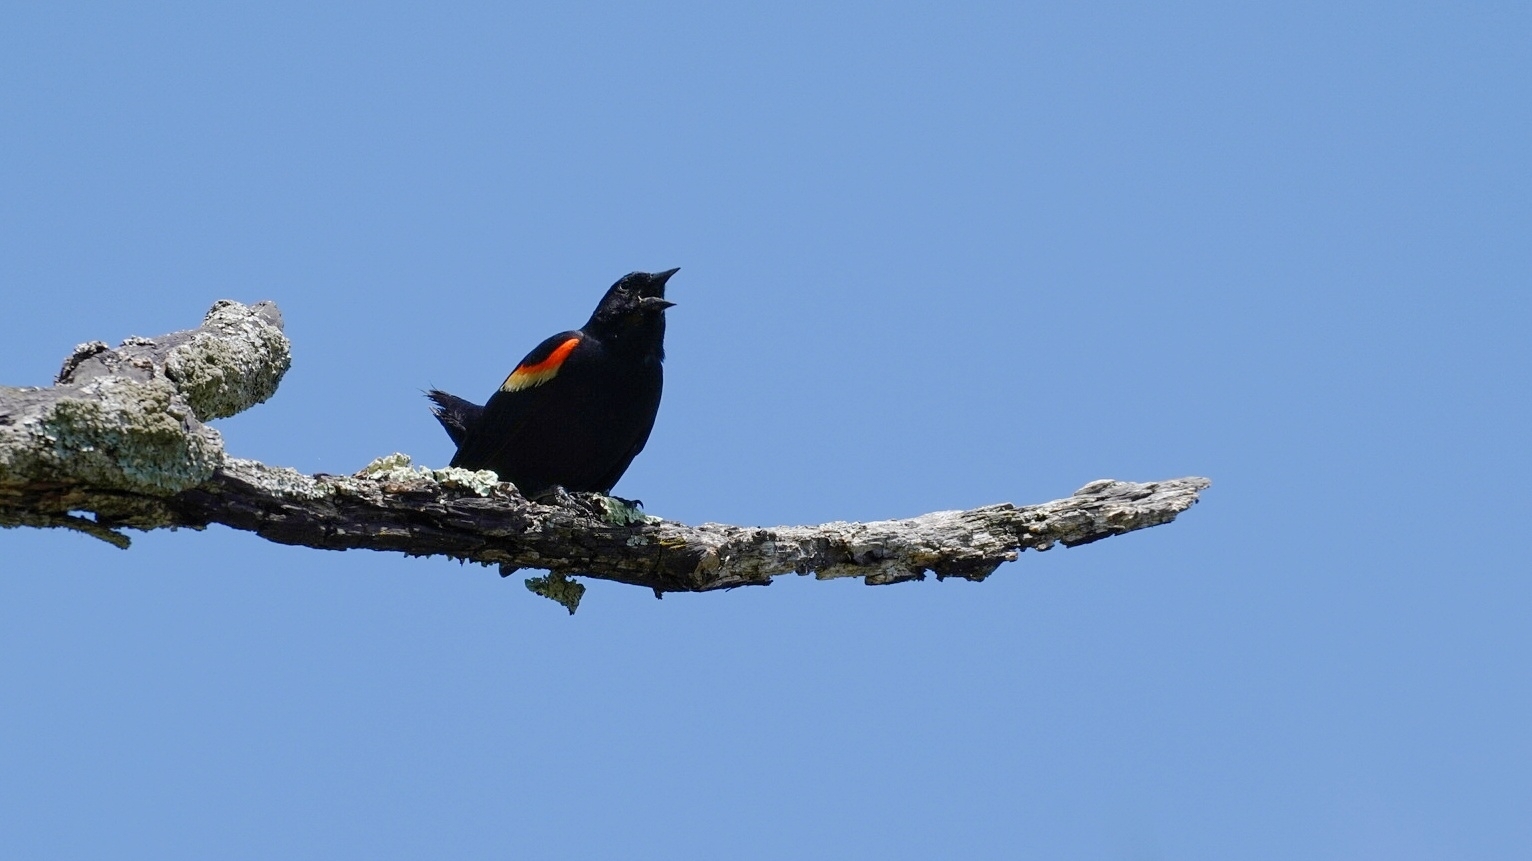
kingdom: Animalia
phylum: Chordata
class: Aves
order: Passeriformes
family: Icteridae
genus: Agelaius
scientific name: Agelaius phoeniceus
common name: Red-winged blackbird
